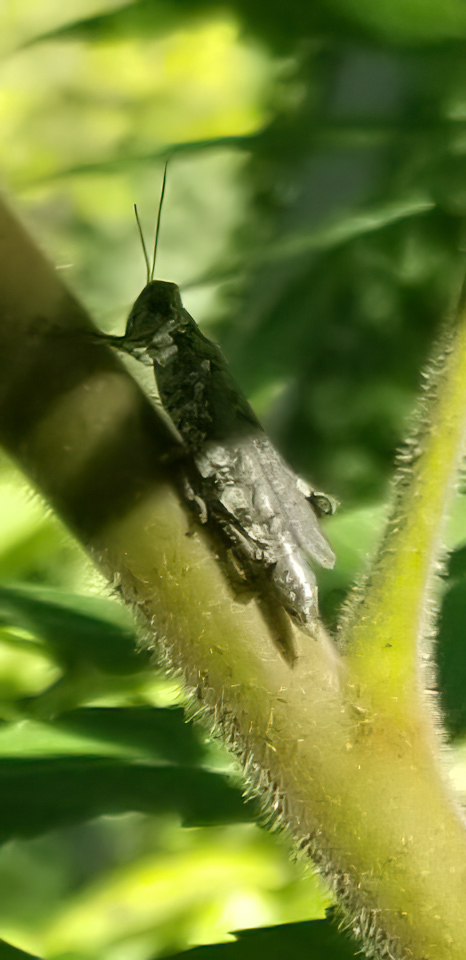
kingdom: Animalia
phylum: Arthropoda
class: Insecta
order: Orthoptera
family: Acrididae
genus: Melanoplus
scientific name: Melanoplus punctulatus
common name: Pine-tree spur-throat grasshopper
